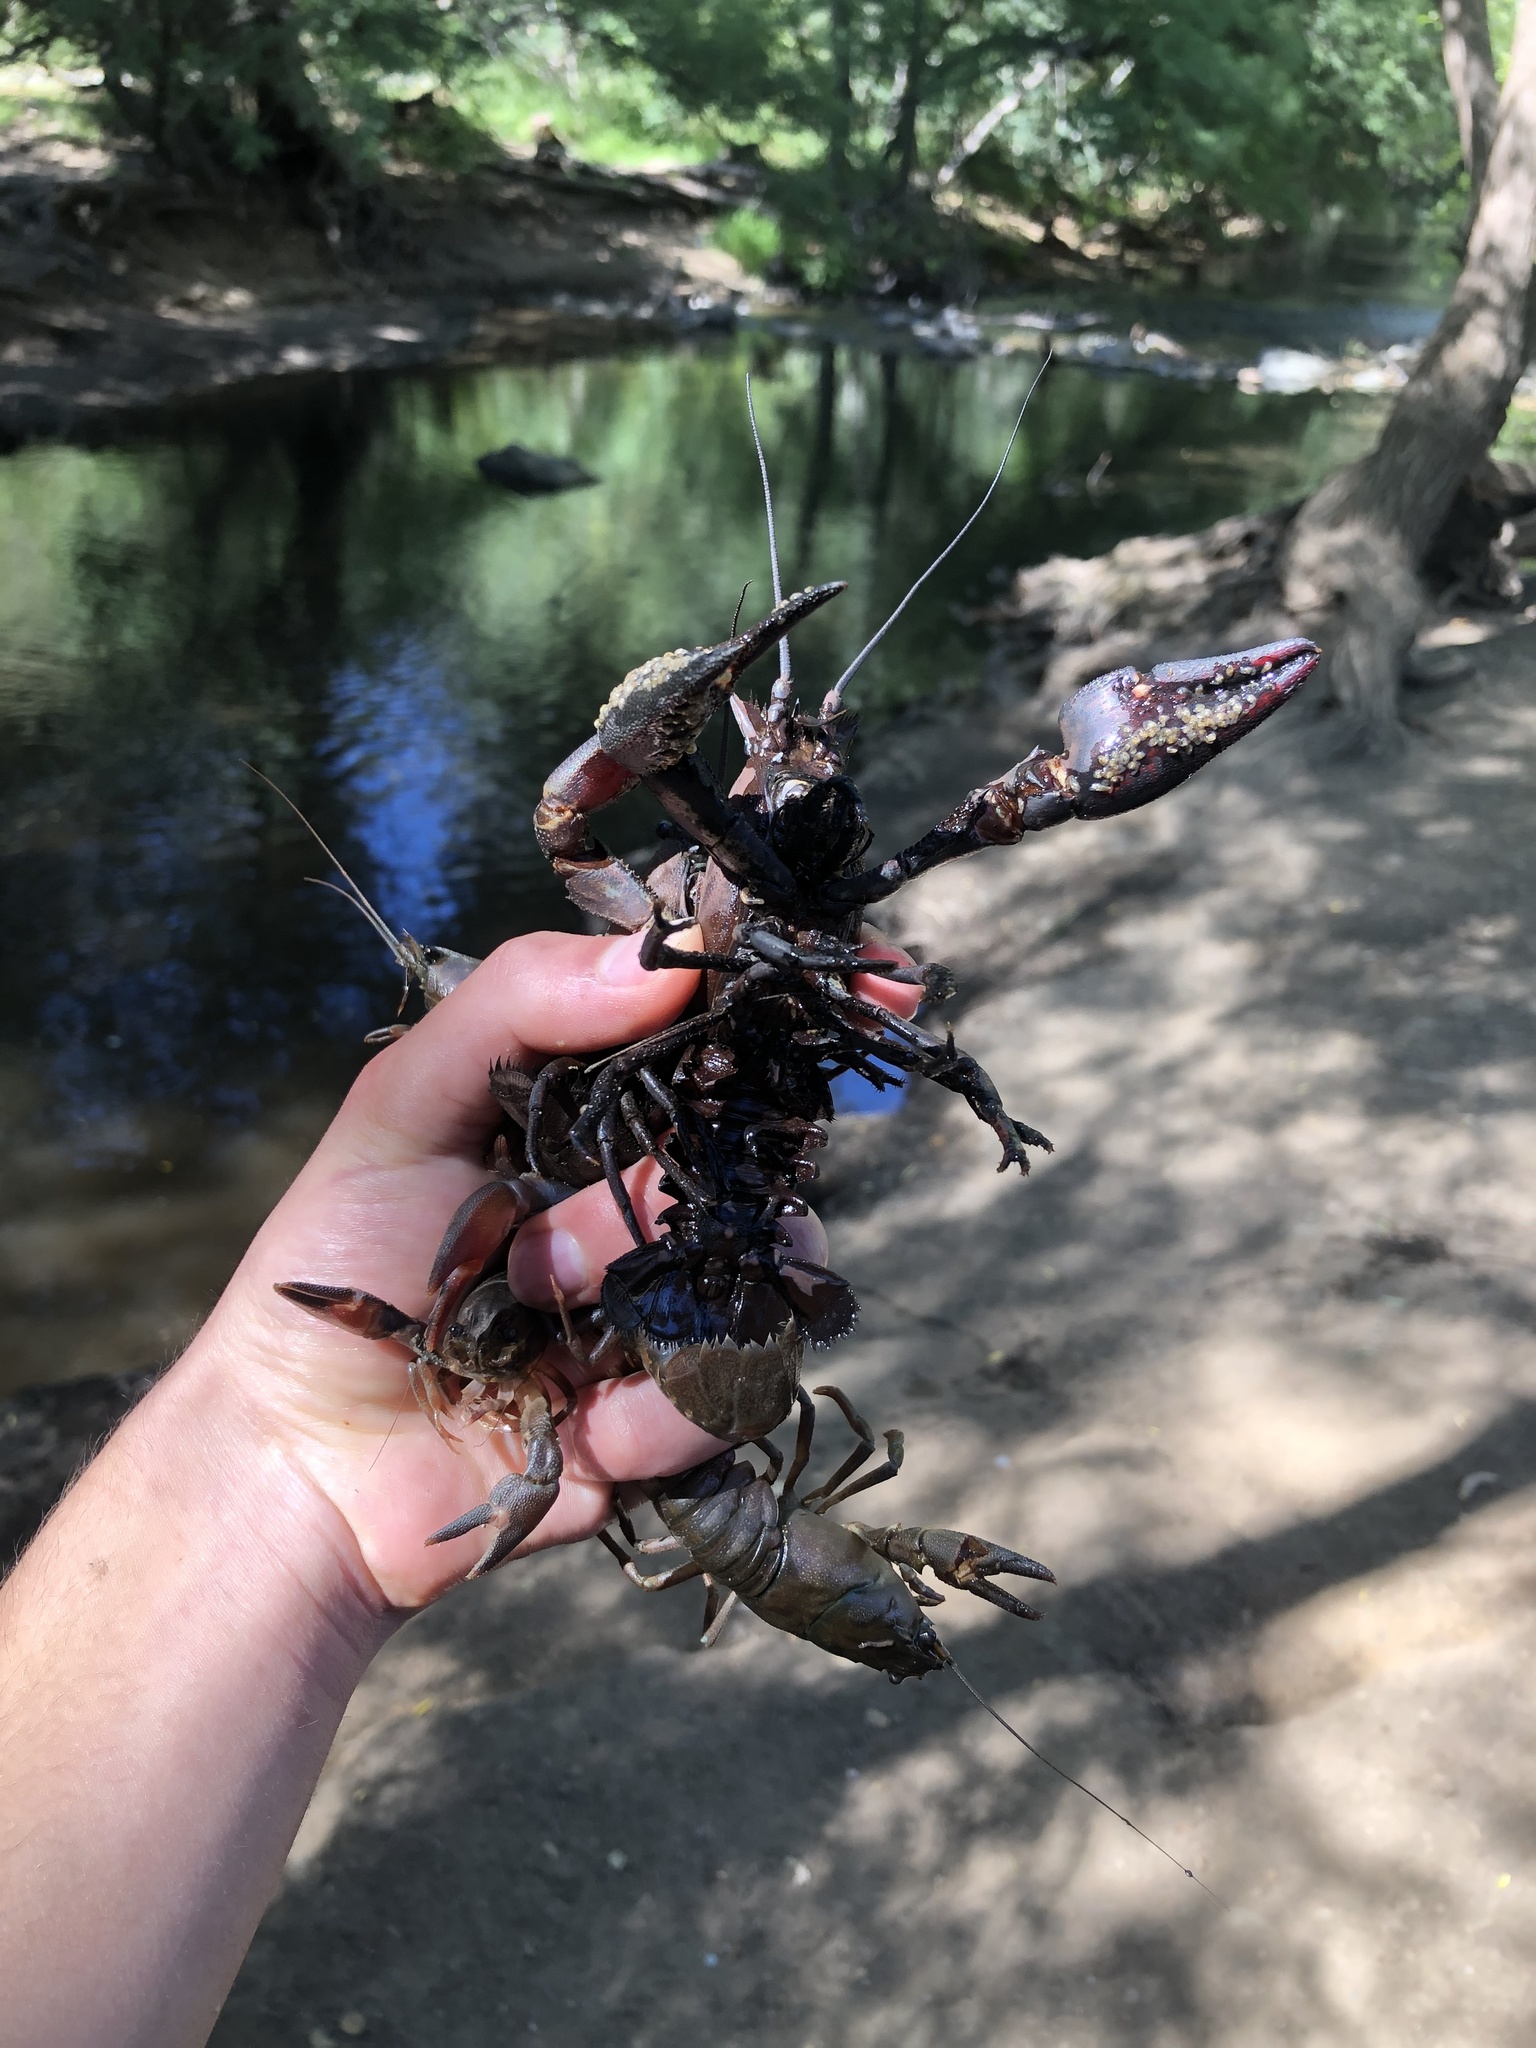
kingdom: Animalia
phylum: Arthropoda
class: Malacostraca
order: Decapoda
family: Astacidae
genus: Pacifastacus
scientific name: Pacifastacus leniusculus
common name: Signal crayfish
